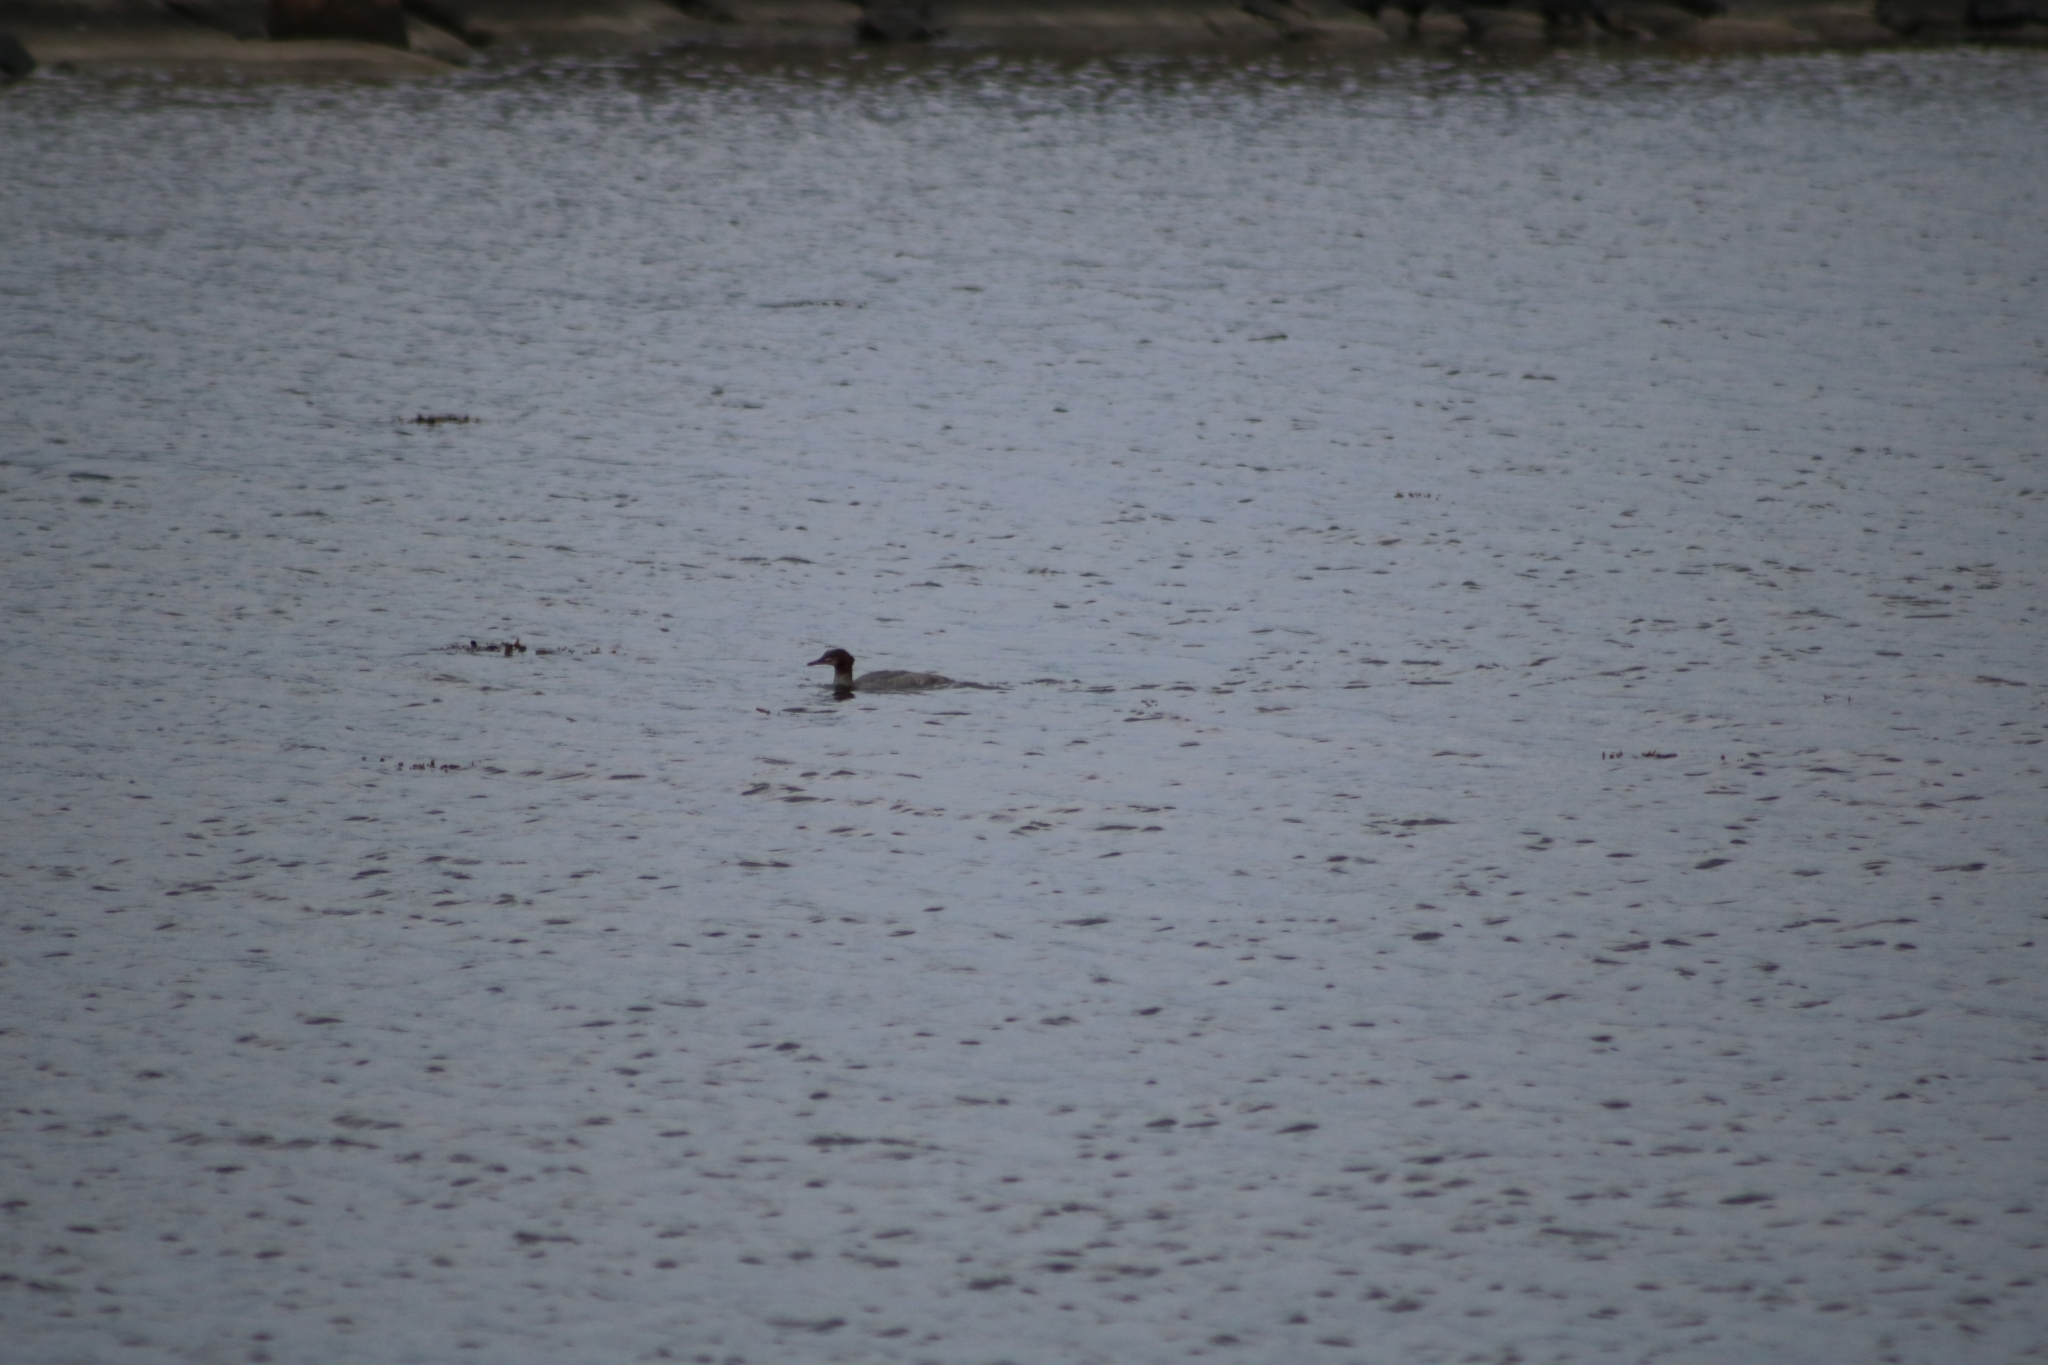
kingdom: Animalia
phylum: Chordata
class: Aves
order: Anseriformes
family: Anatidae
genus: Mergus
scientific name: Mergus merganser
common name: Common merganser
